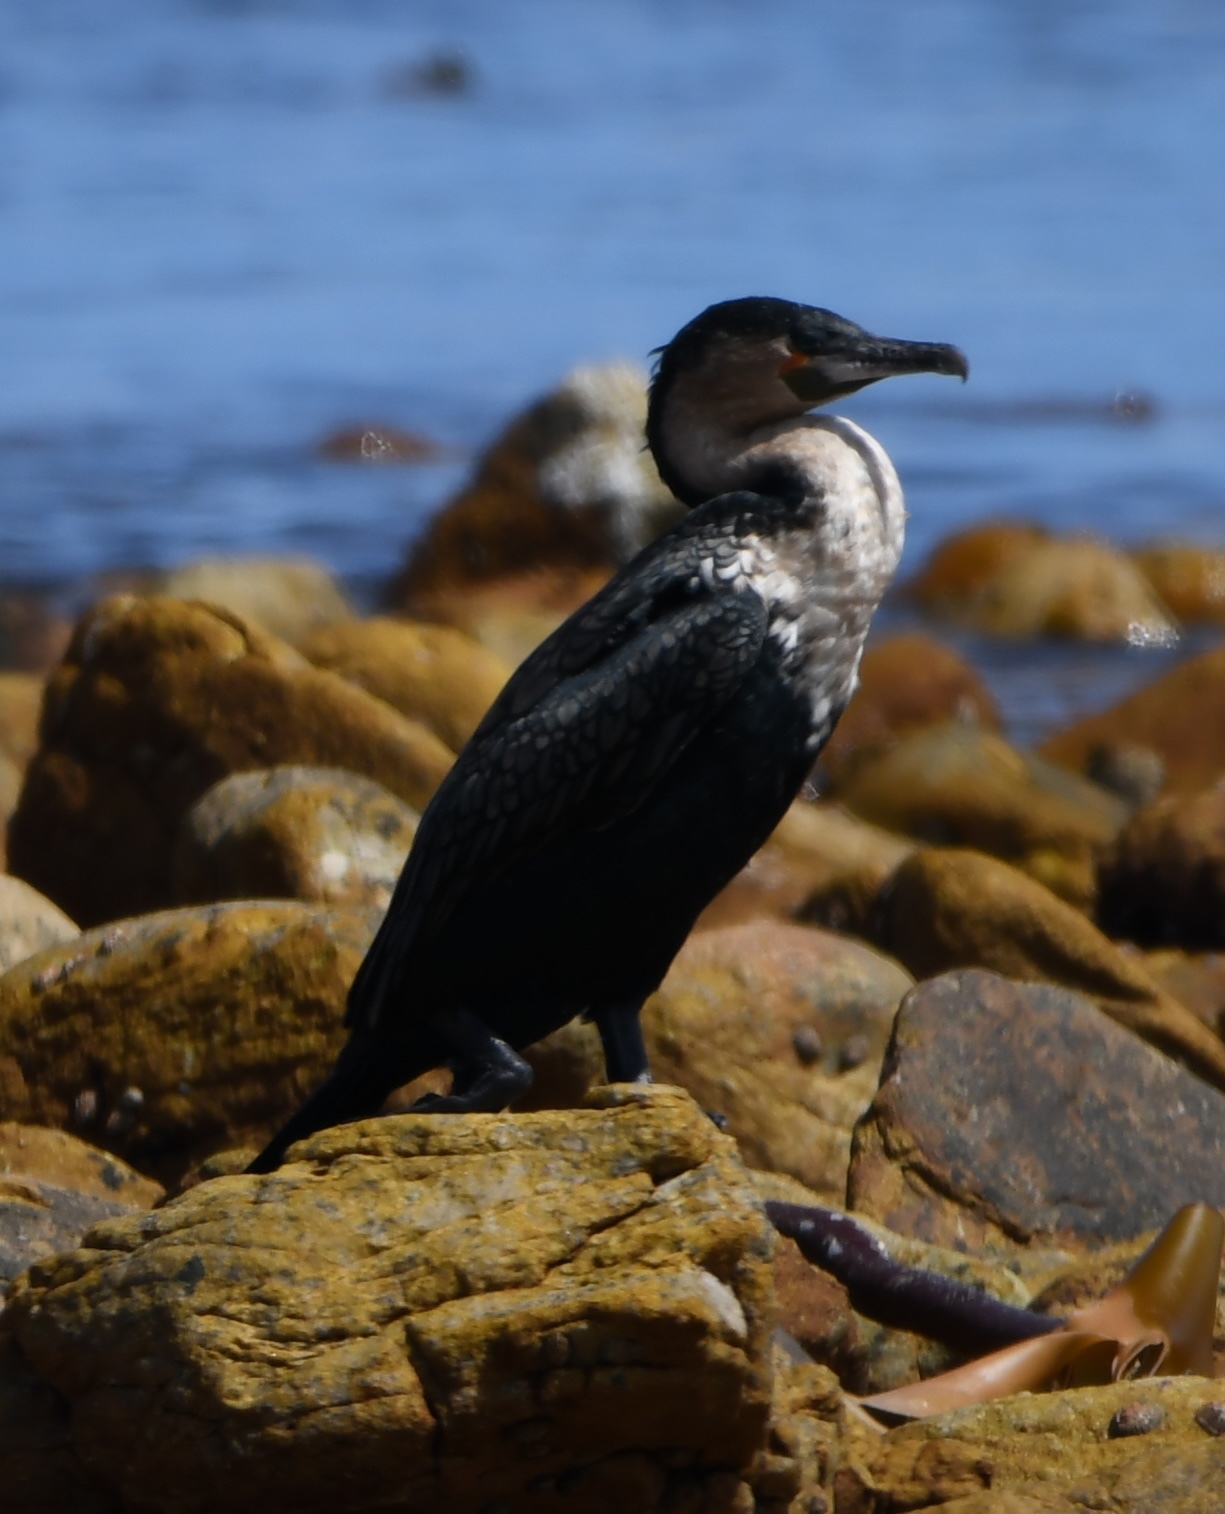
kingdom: Animalia
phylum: Chordata
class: Aves
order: Suliformes
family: Phalacrocoracidae
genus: Phalacrocorax
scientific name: Phalacrocorax carbo
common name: Great cormorant
